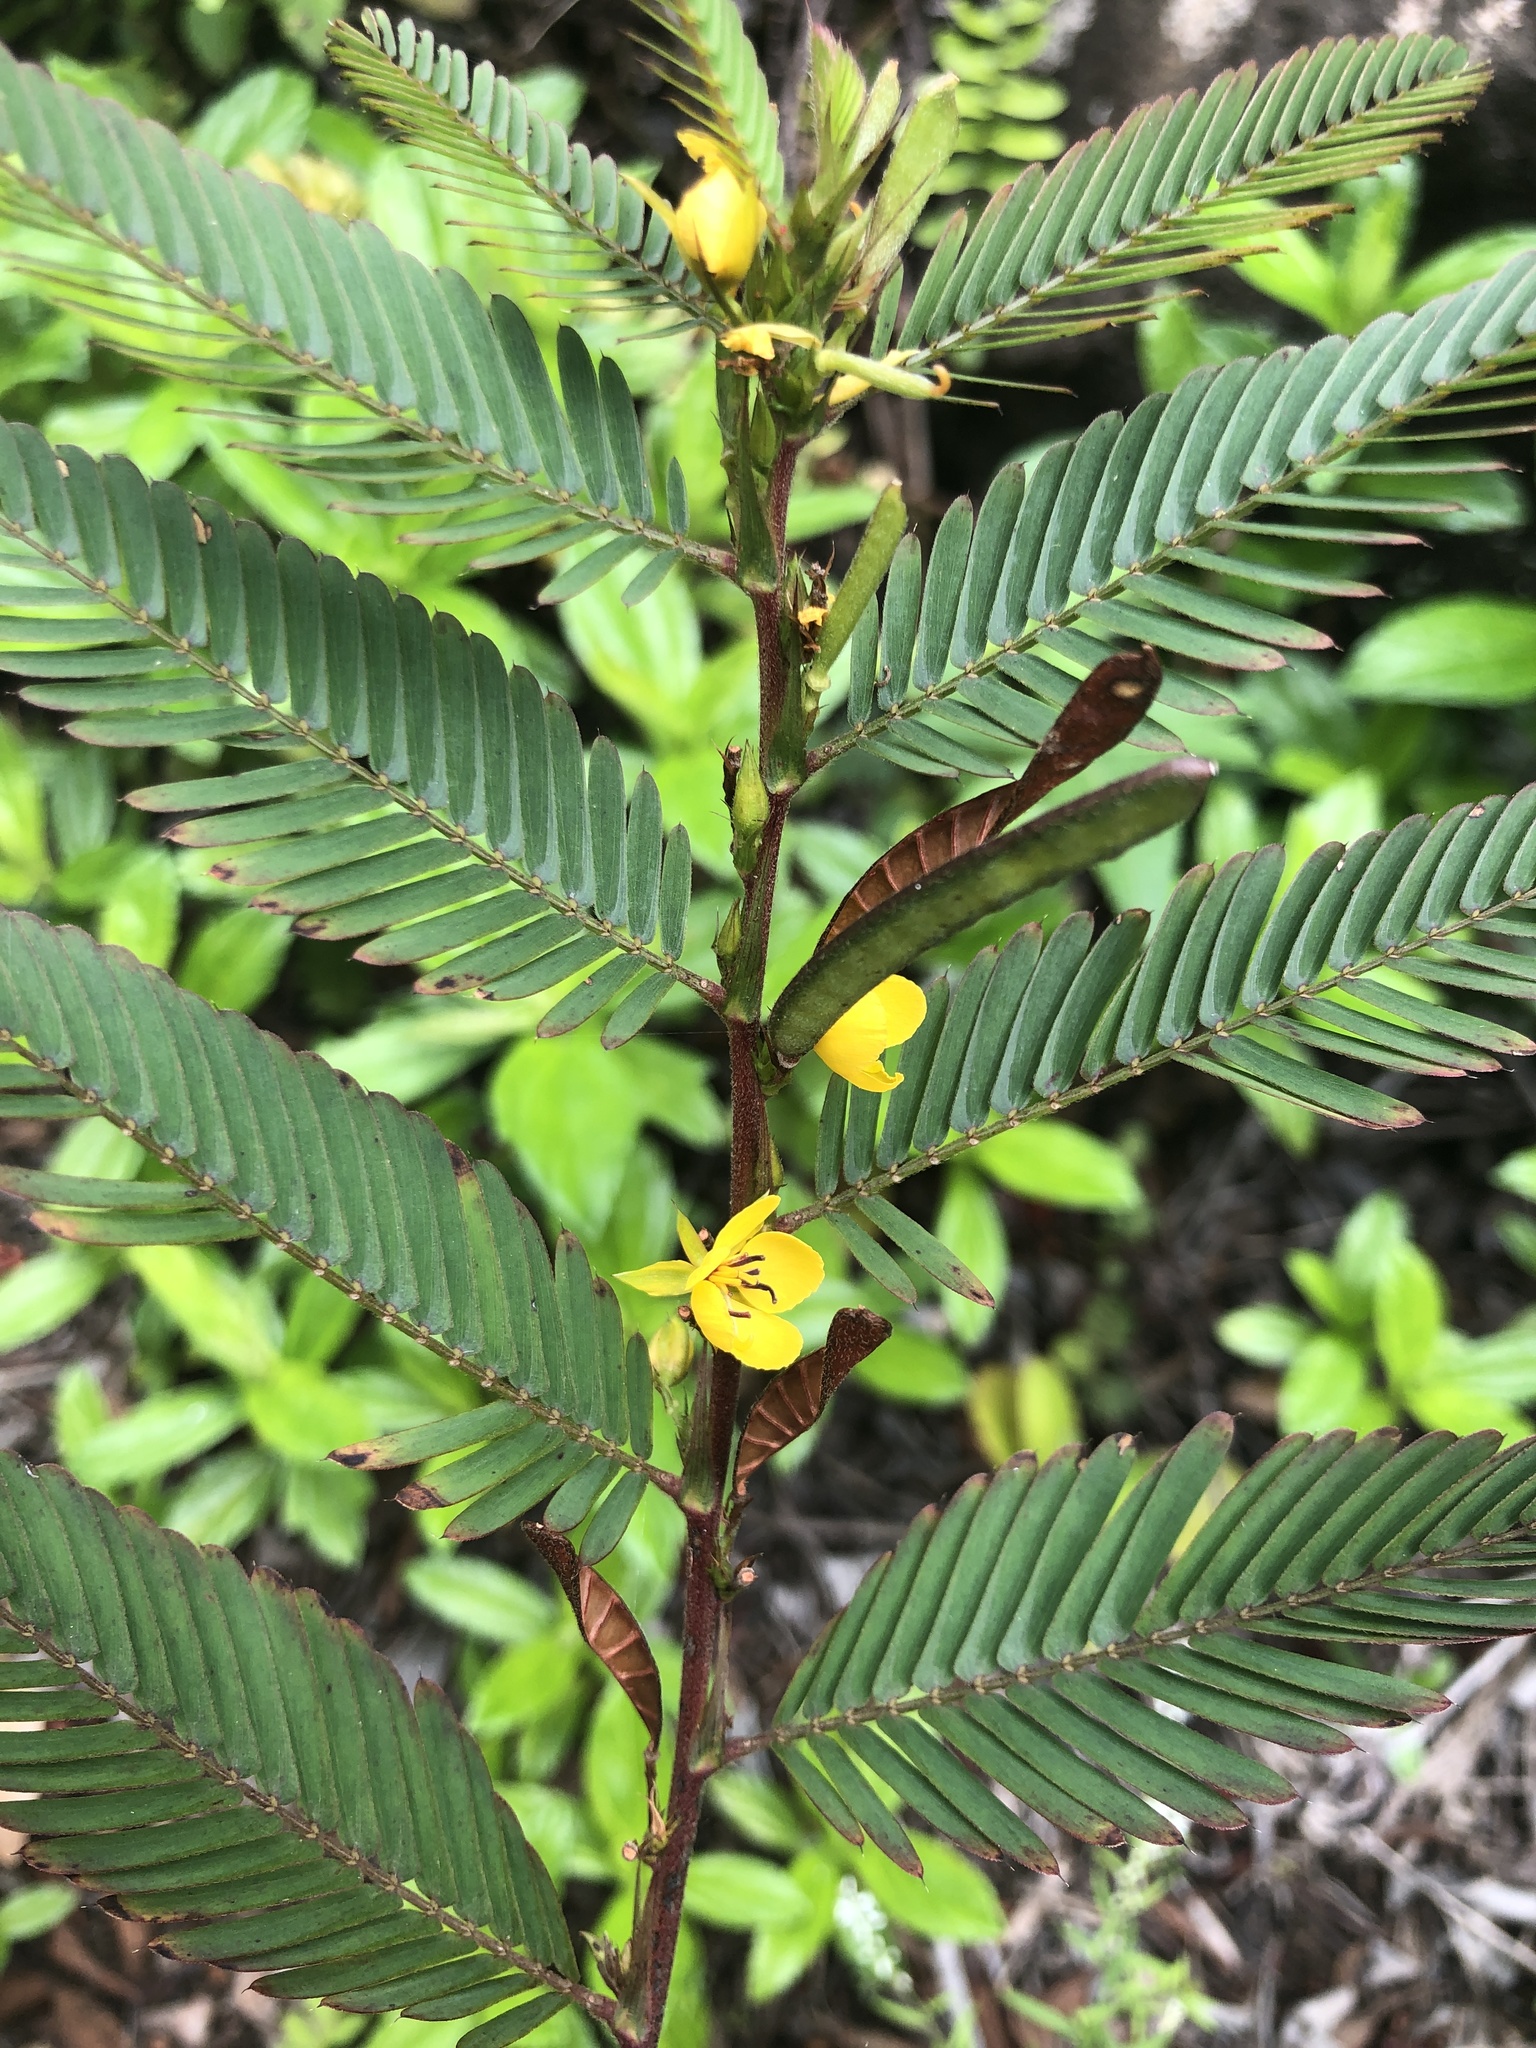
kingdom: Plantae
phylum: Tracheophyta
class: Magnoliopsida
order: Fabales
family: Fabaceae
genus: Chamaecrista
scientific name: Chamaecrista nictitans
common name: Sensitive cassia
